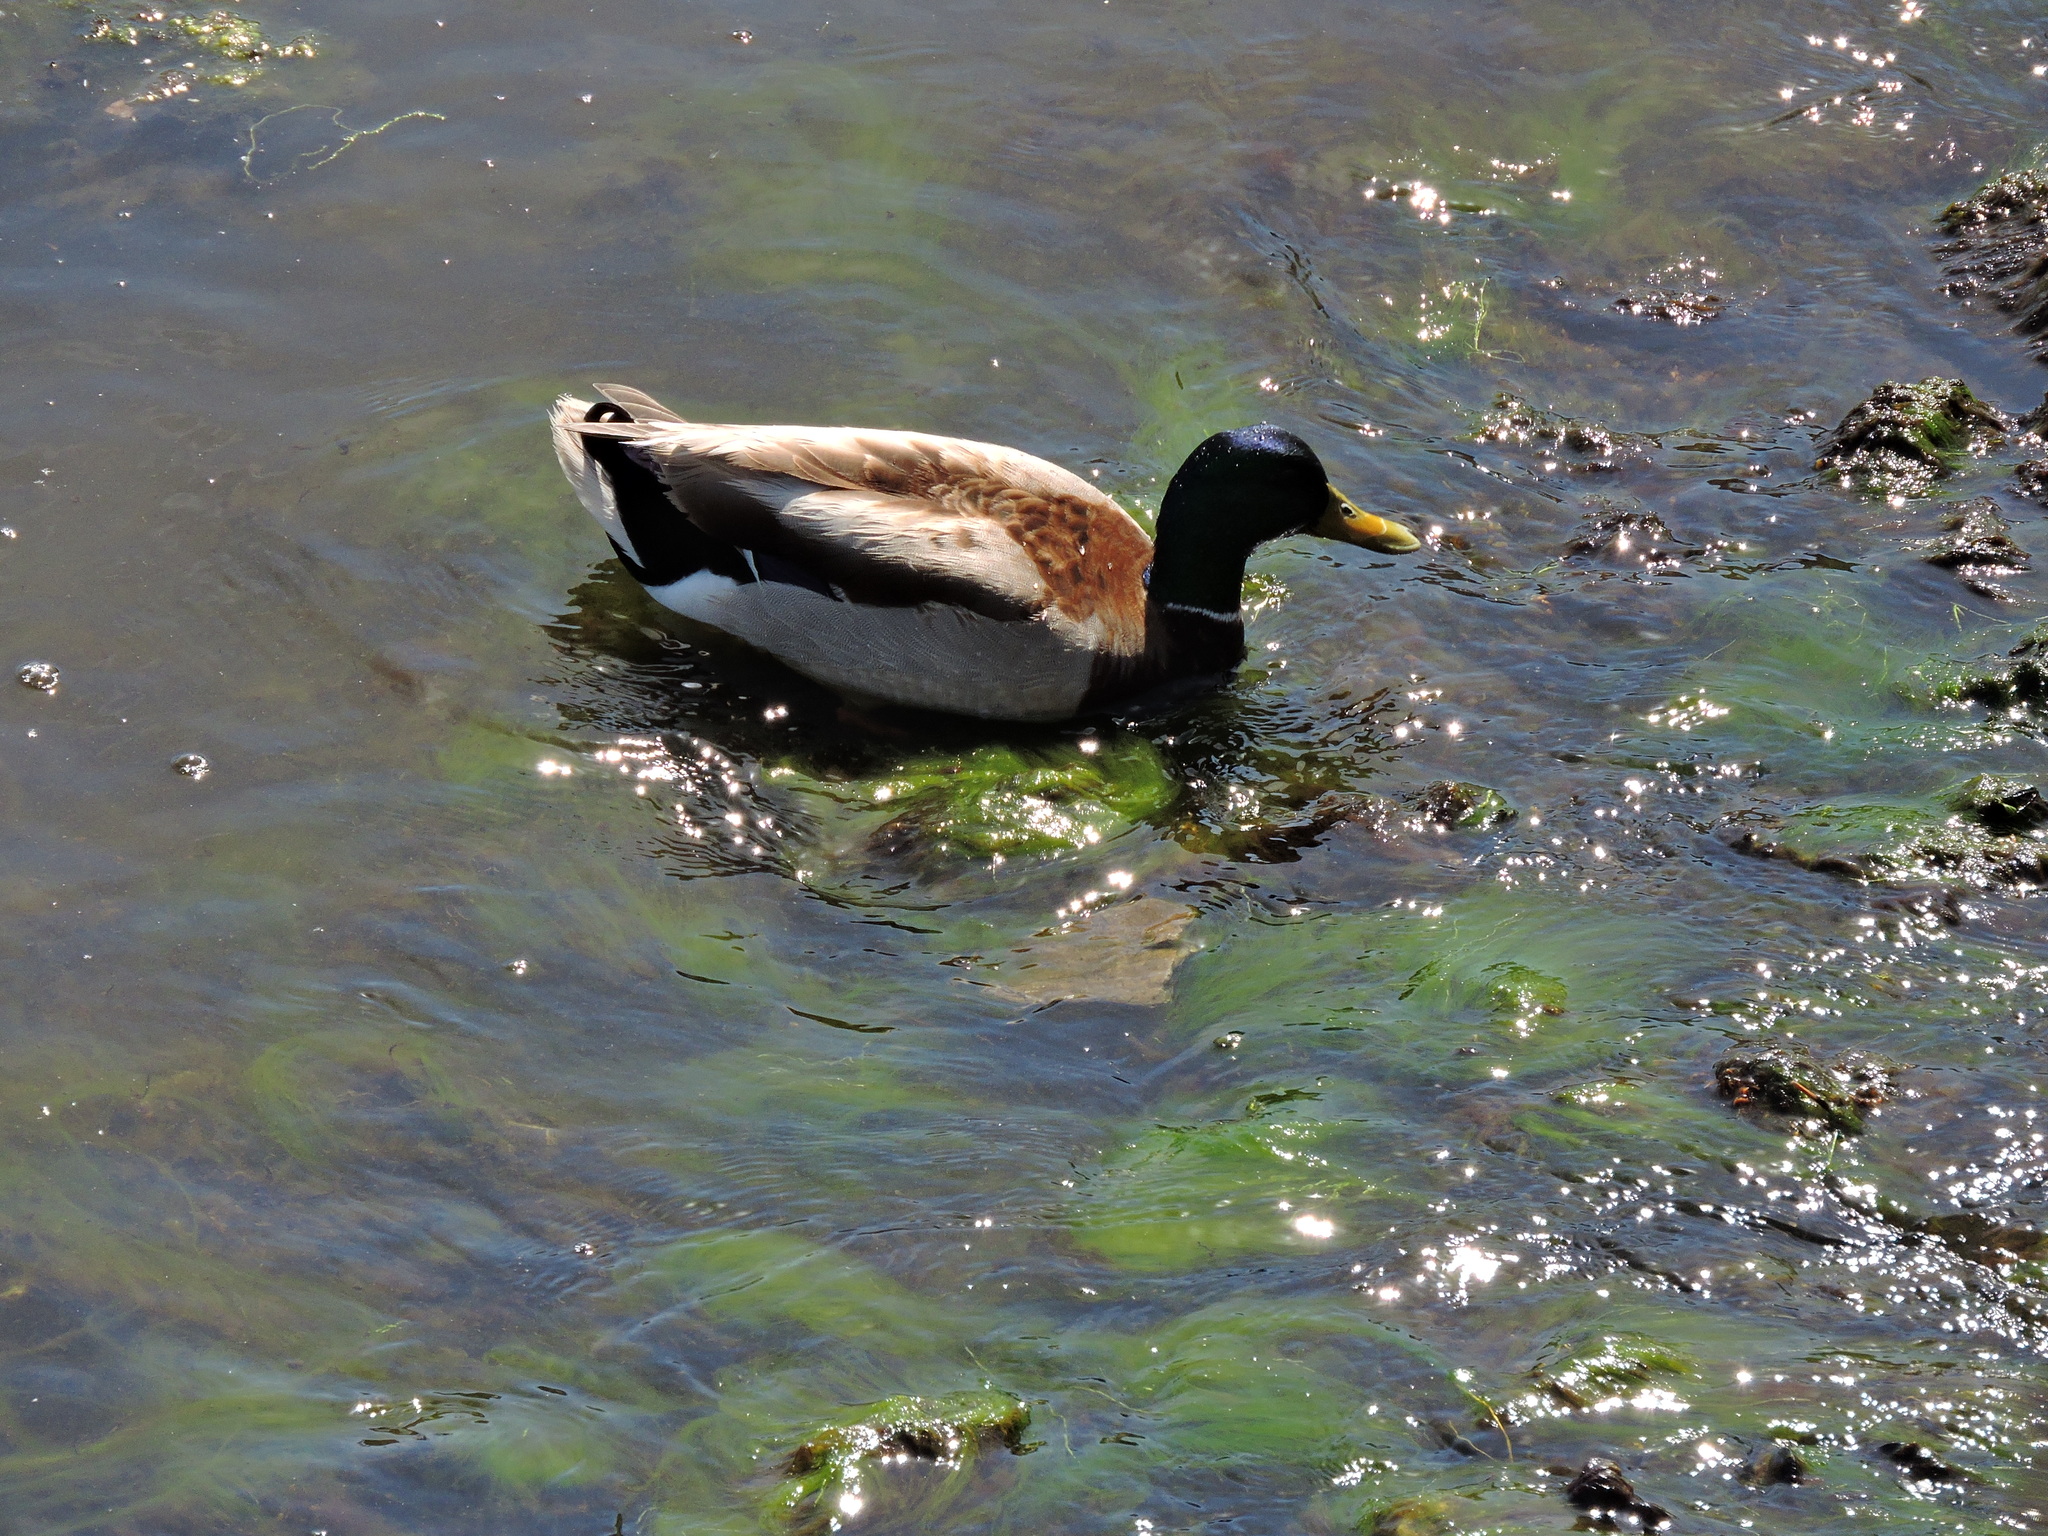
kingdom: Animalia
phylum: Chordata
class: Aves
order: Anseriformes
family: Anatidae
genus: Anas
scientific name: Anas platyrhynchos
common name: Mallard
